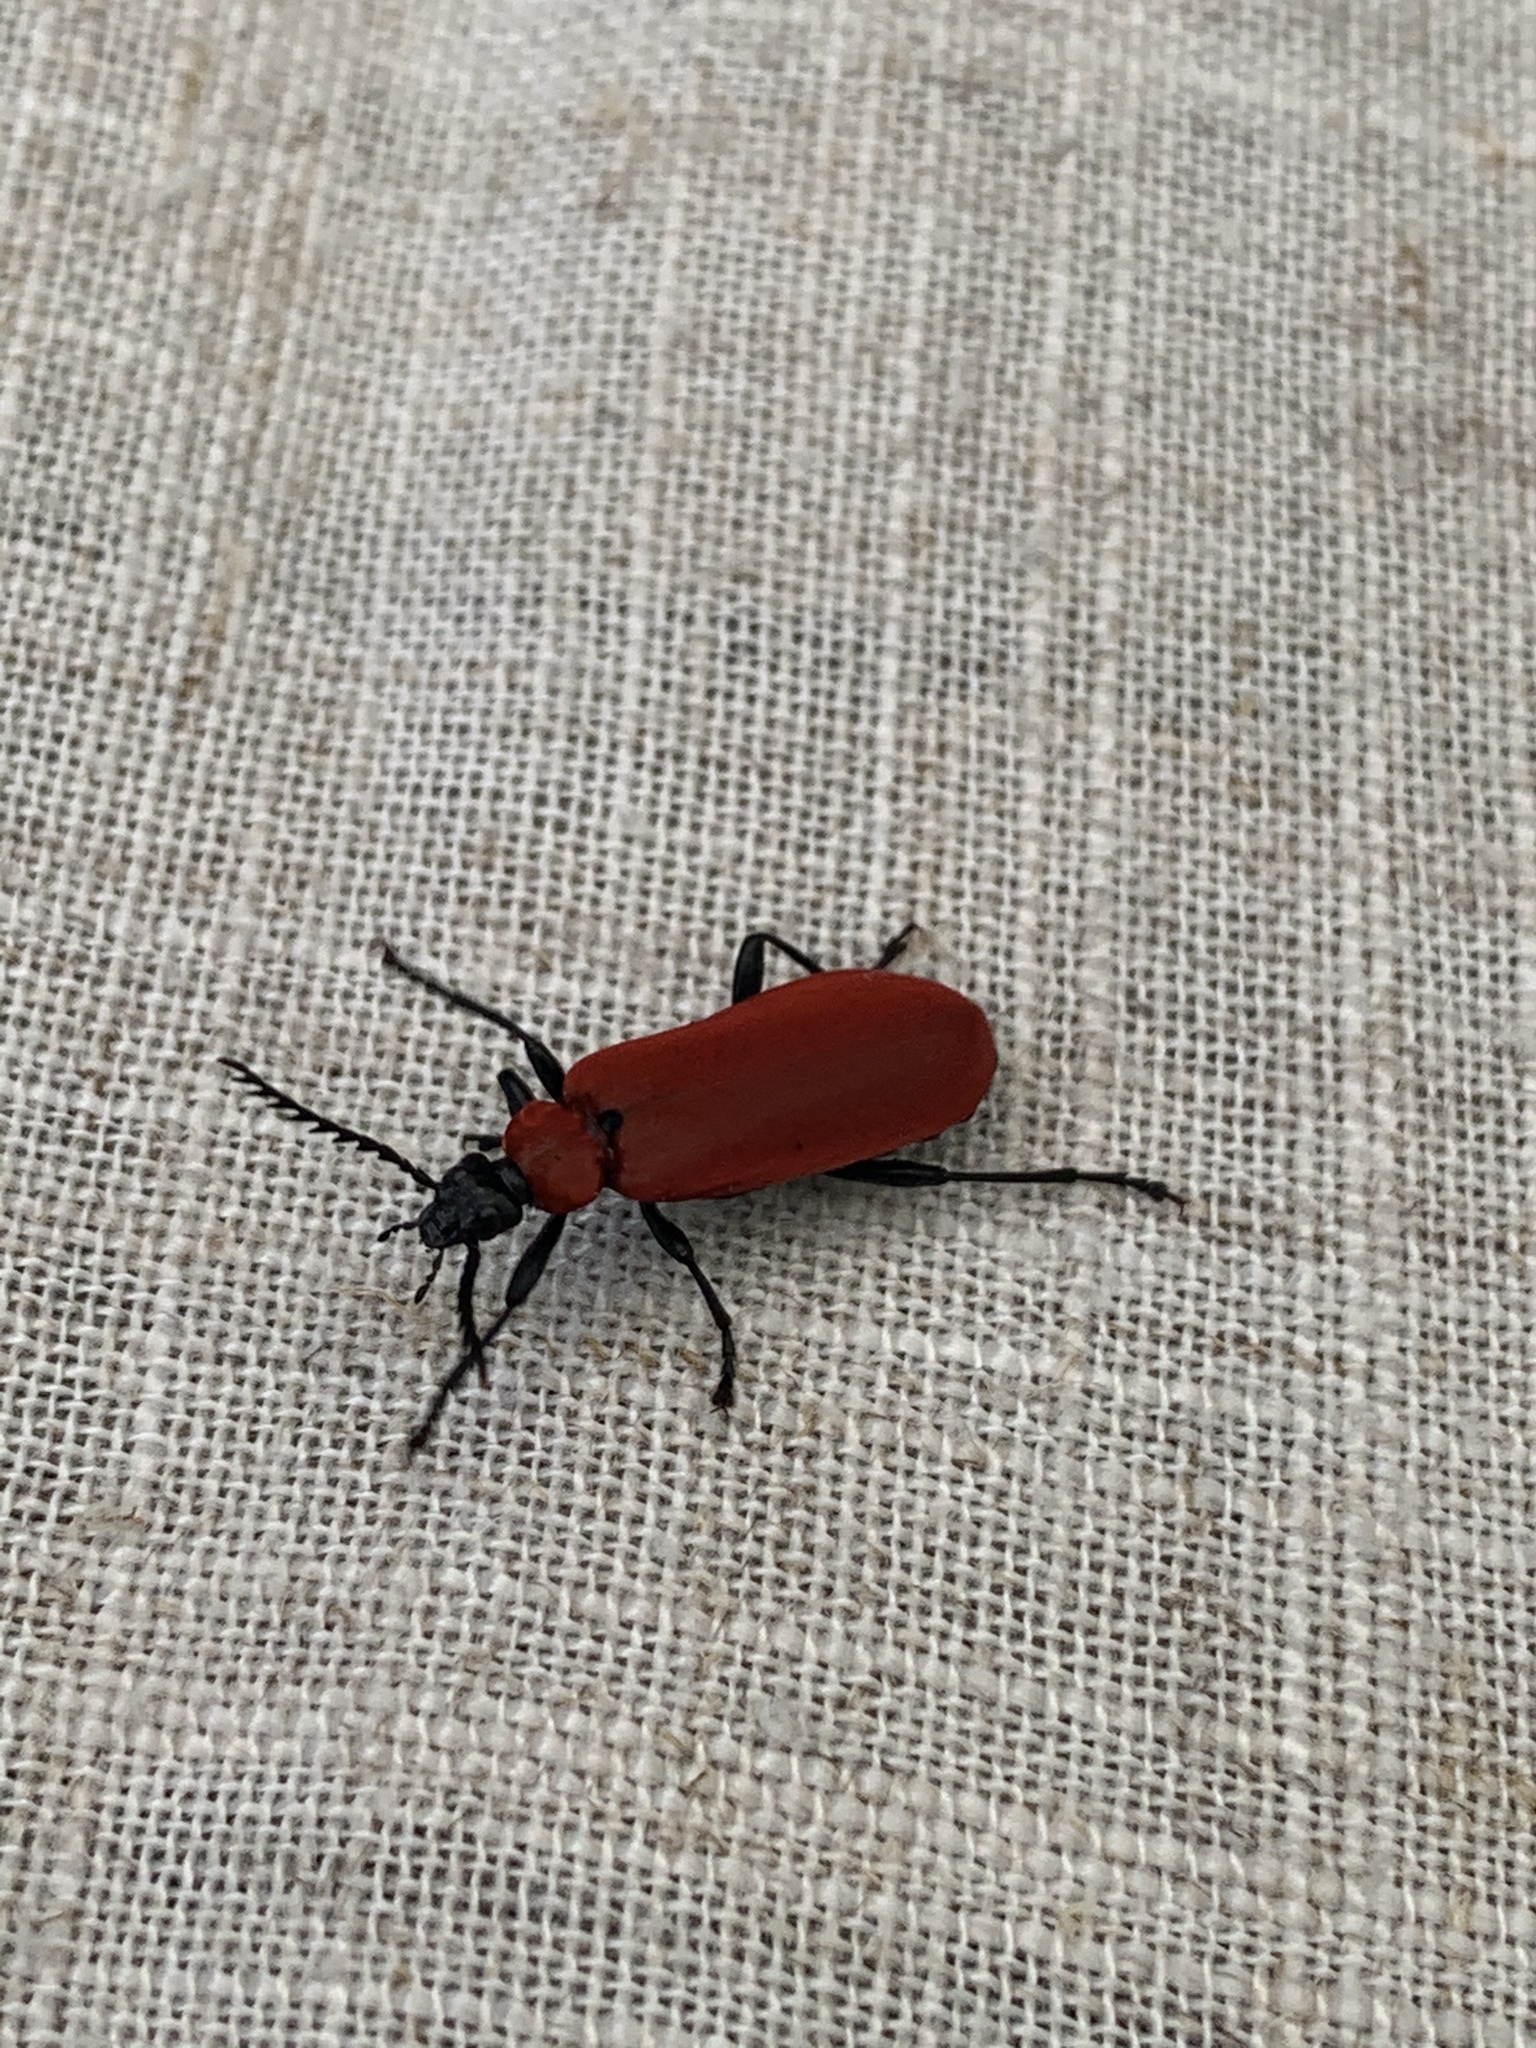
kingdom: Animalia
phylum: Arthropoda
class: Insecta
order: Coleoptera
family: Pyrochroidae
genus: Pyrochroa
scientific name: Pyrochroa coccinea
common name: Black-headed cardinal beetle
